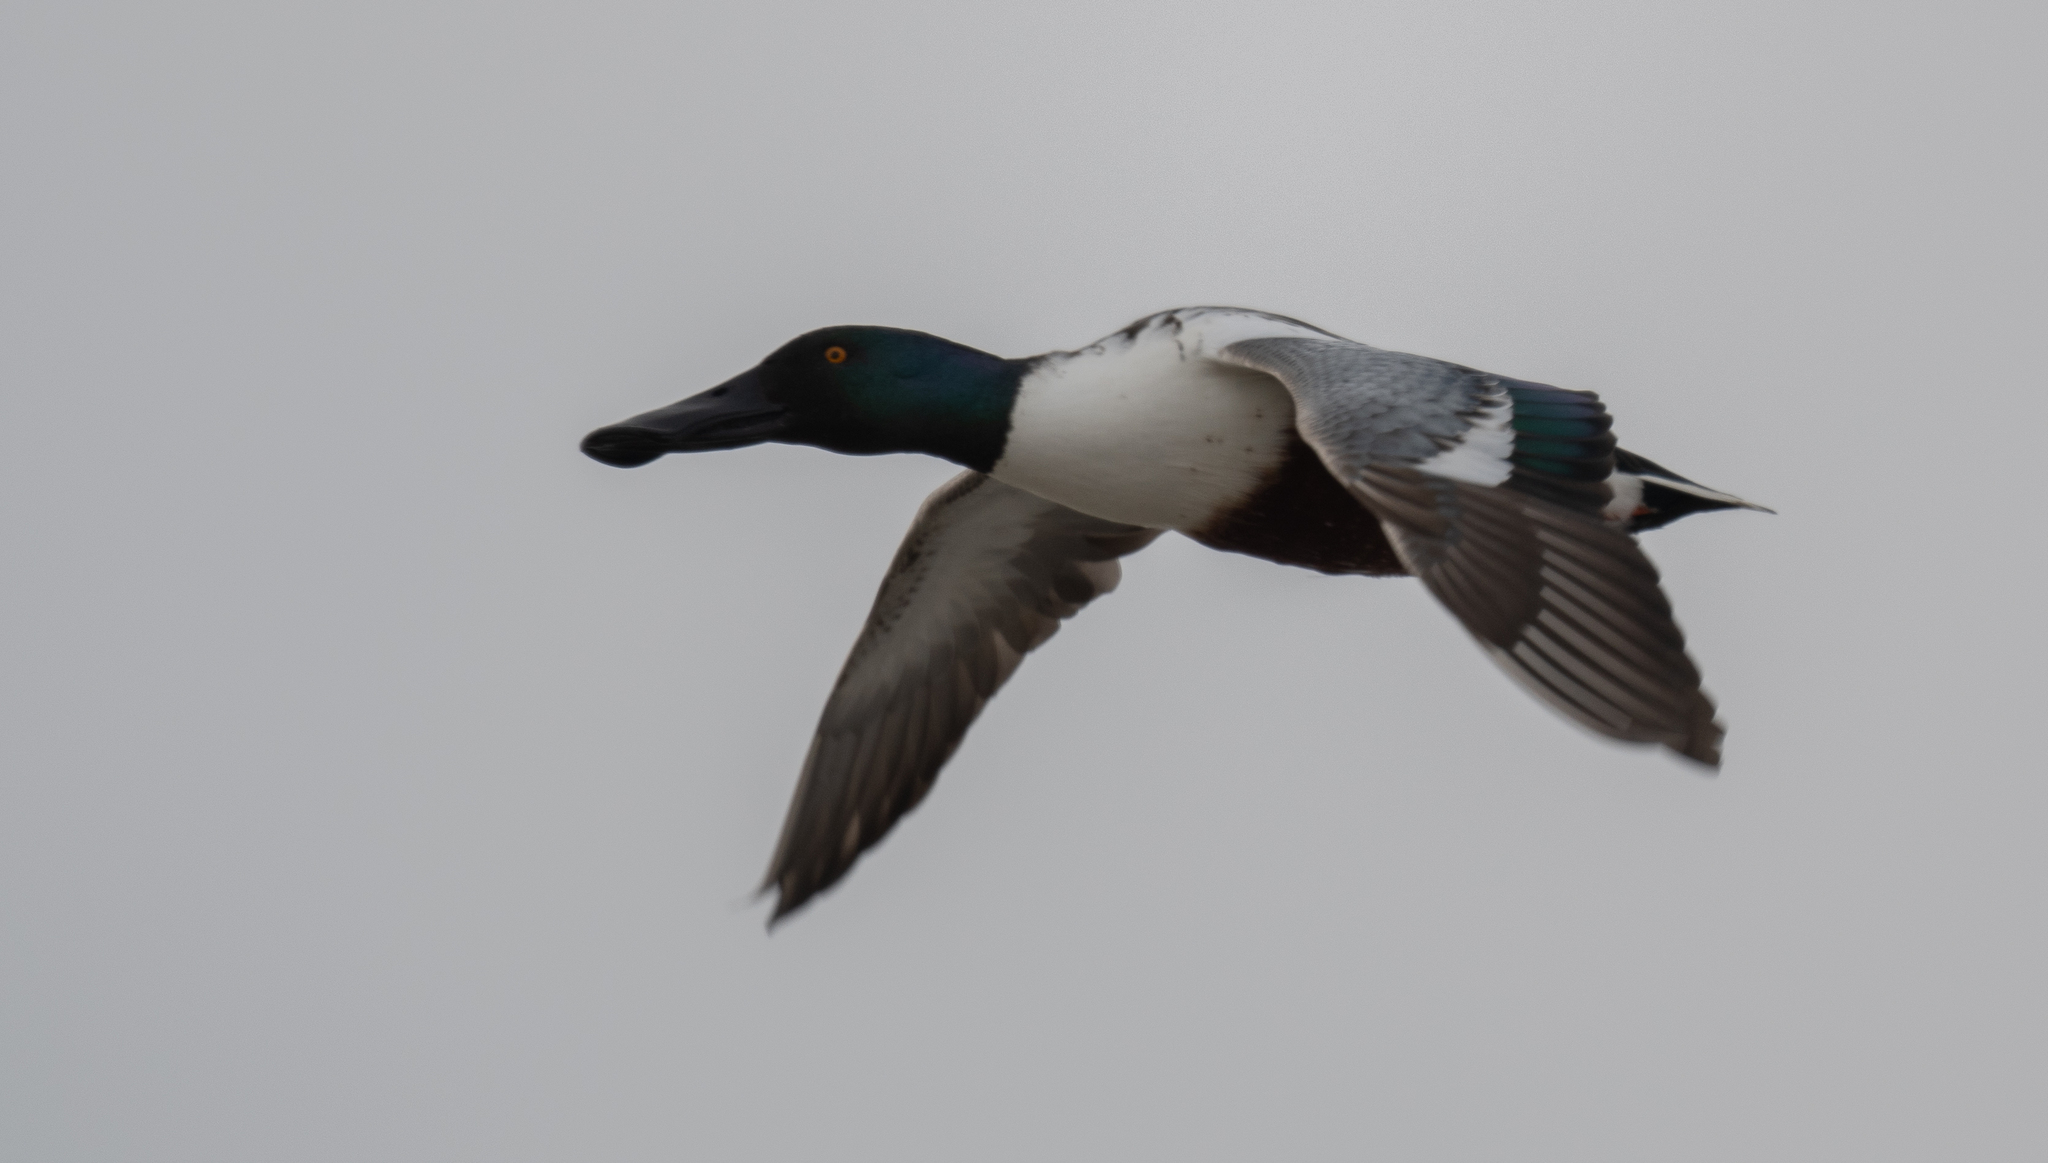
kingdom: Animalia
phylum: Chordata
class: Aves
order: Anseriformes
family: Anatidae
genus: Spatula
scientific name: Spatula clypeata
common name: Northern shoveler
